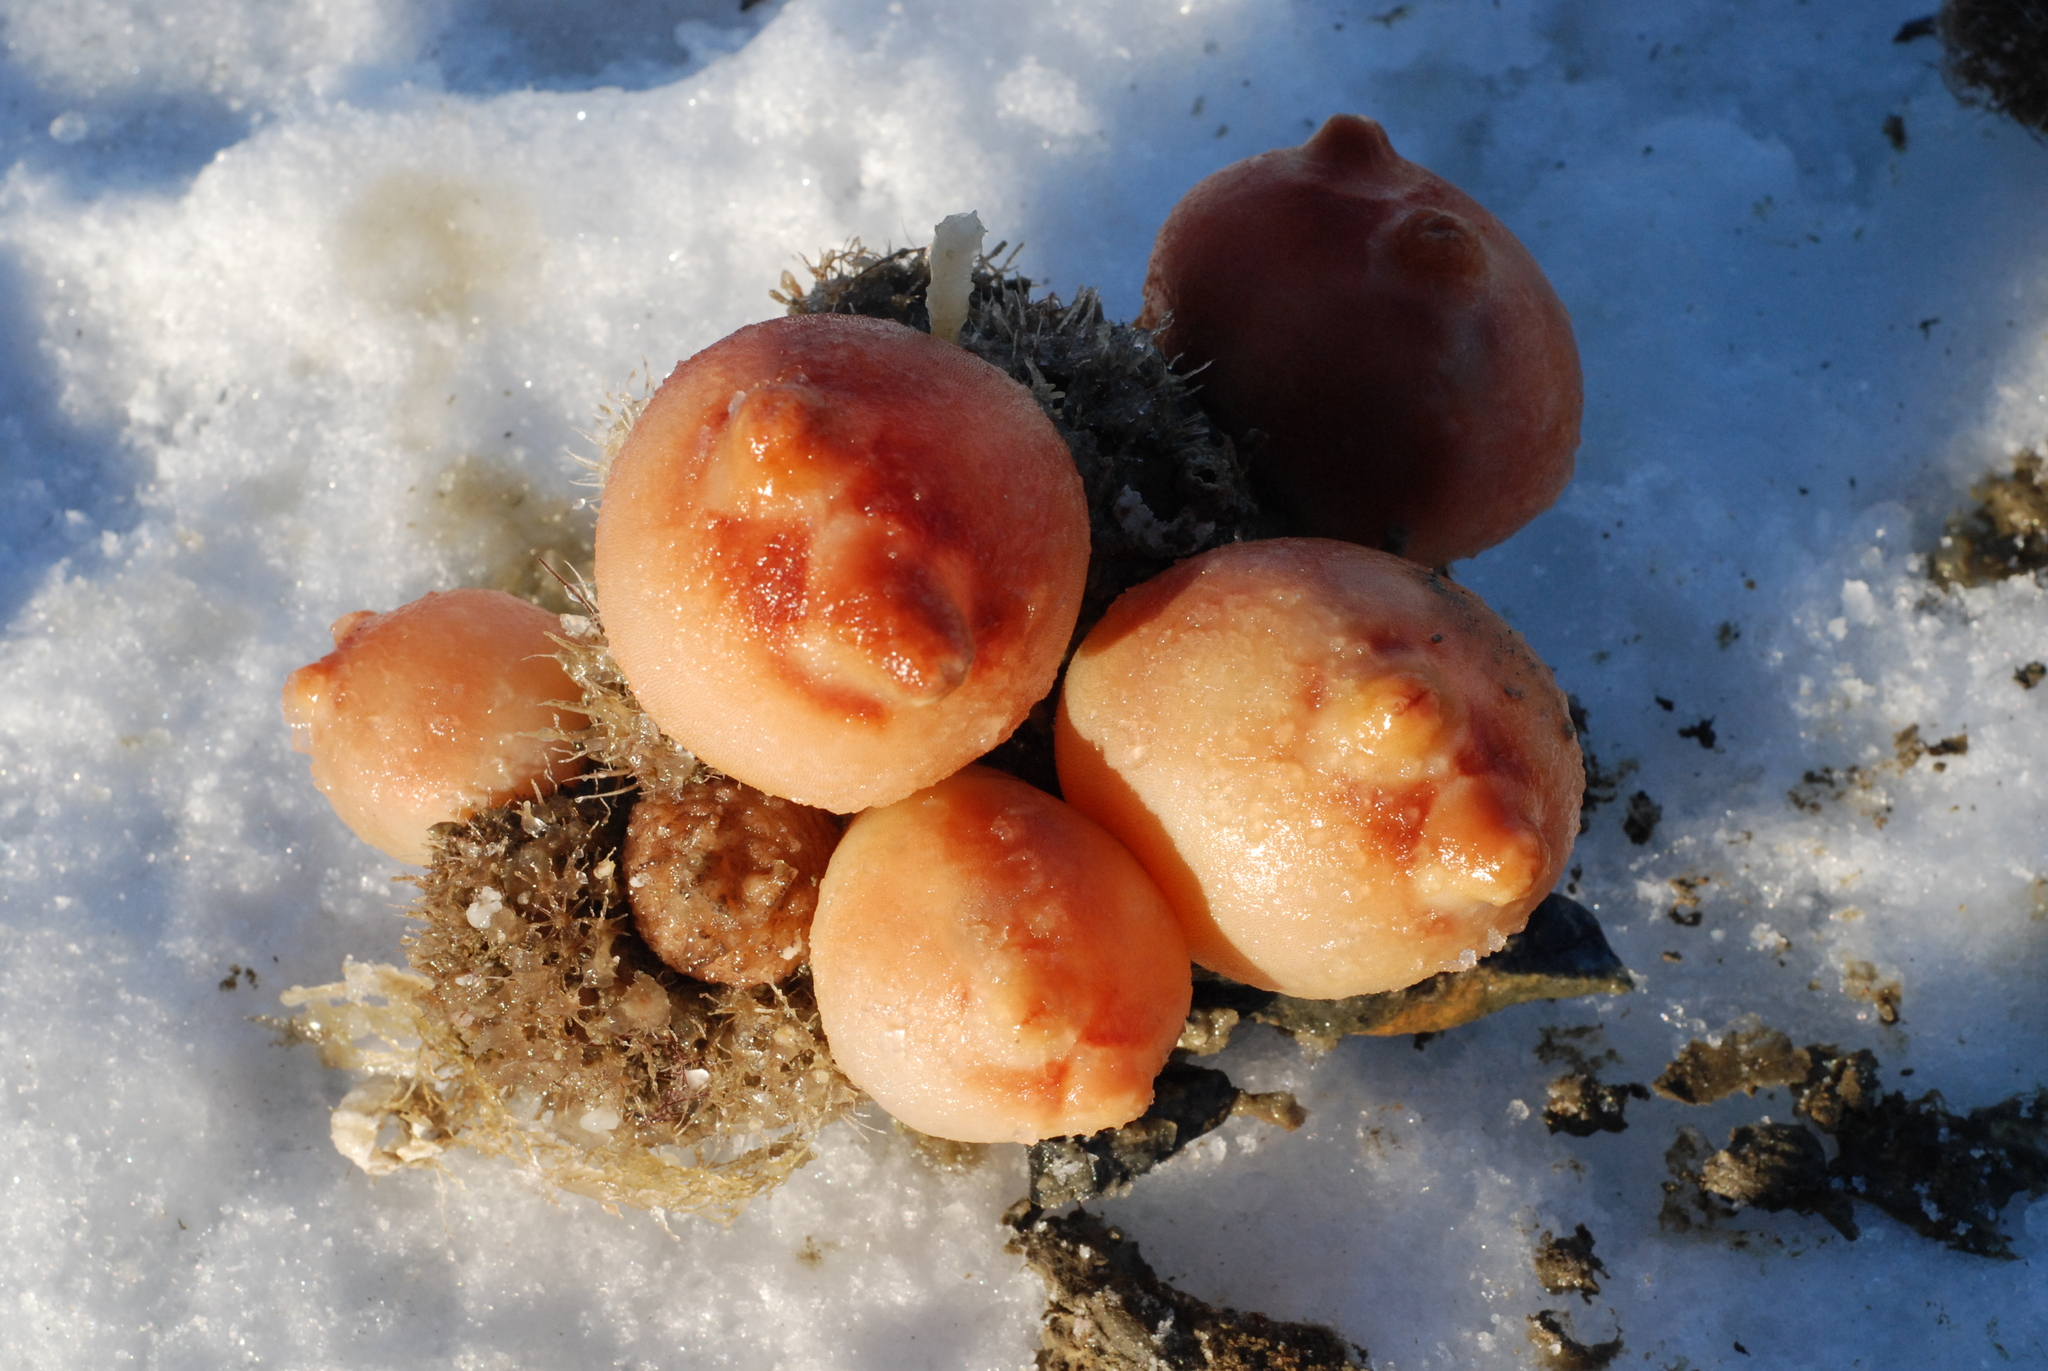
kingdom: Animalia
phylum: Chordata
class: Ascidiacea
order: Stolidobranchia
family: Pyuridae
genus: Halocynthia
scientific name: Halocynthia aurantium
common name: Sea peach
